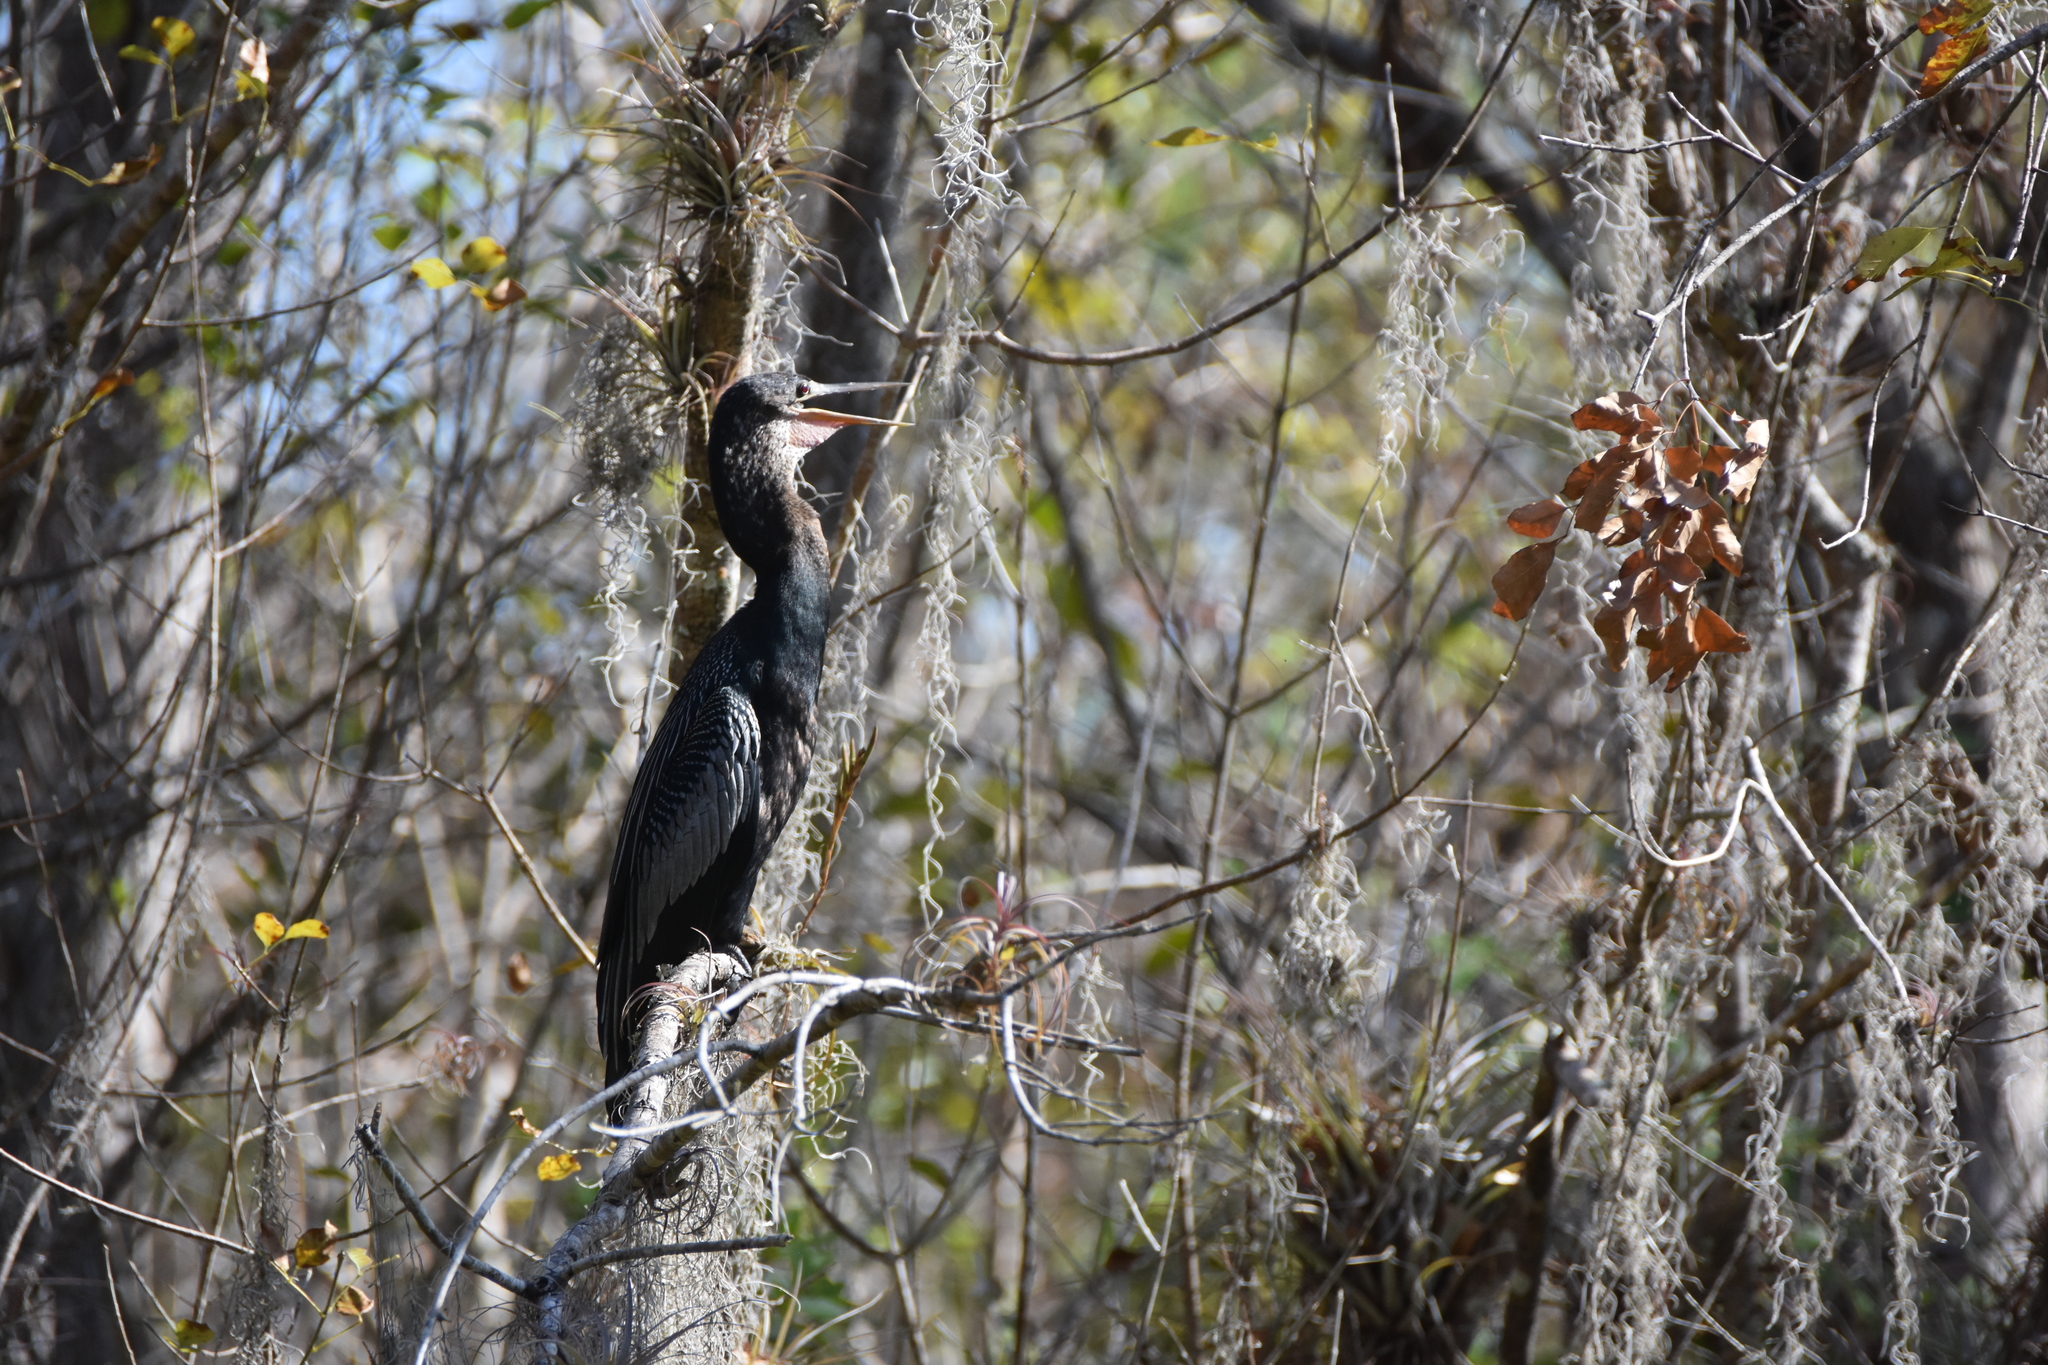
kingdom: Animalia
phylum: Chordata
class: Aves
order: Suliformes
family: Anhingidae
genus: Anhinga
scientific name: Anhinga anhinga
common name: Anhinga
